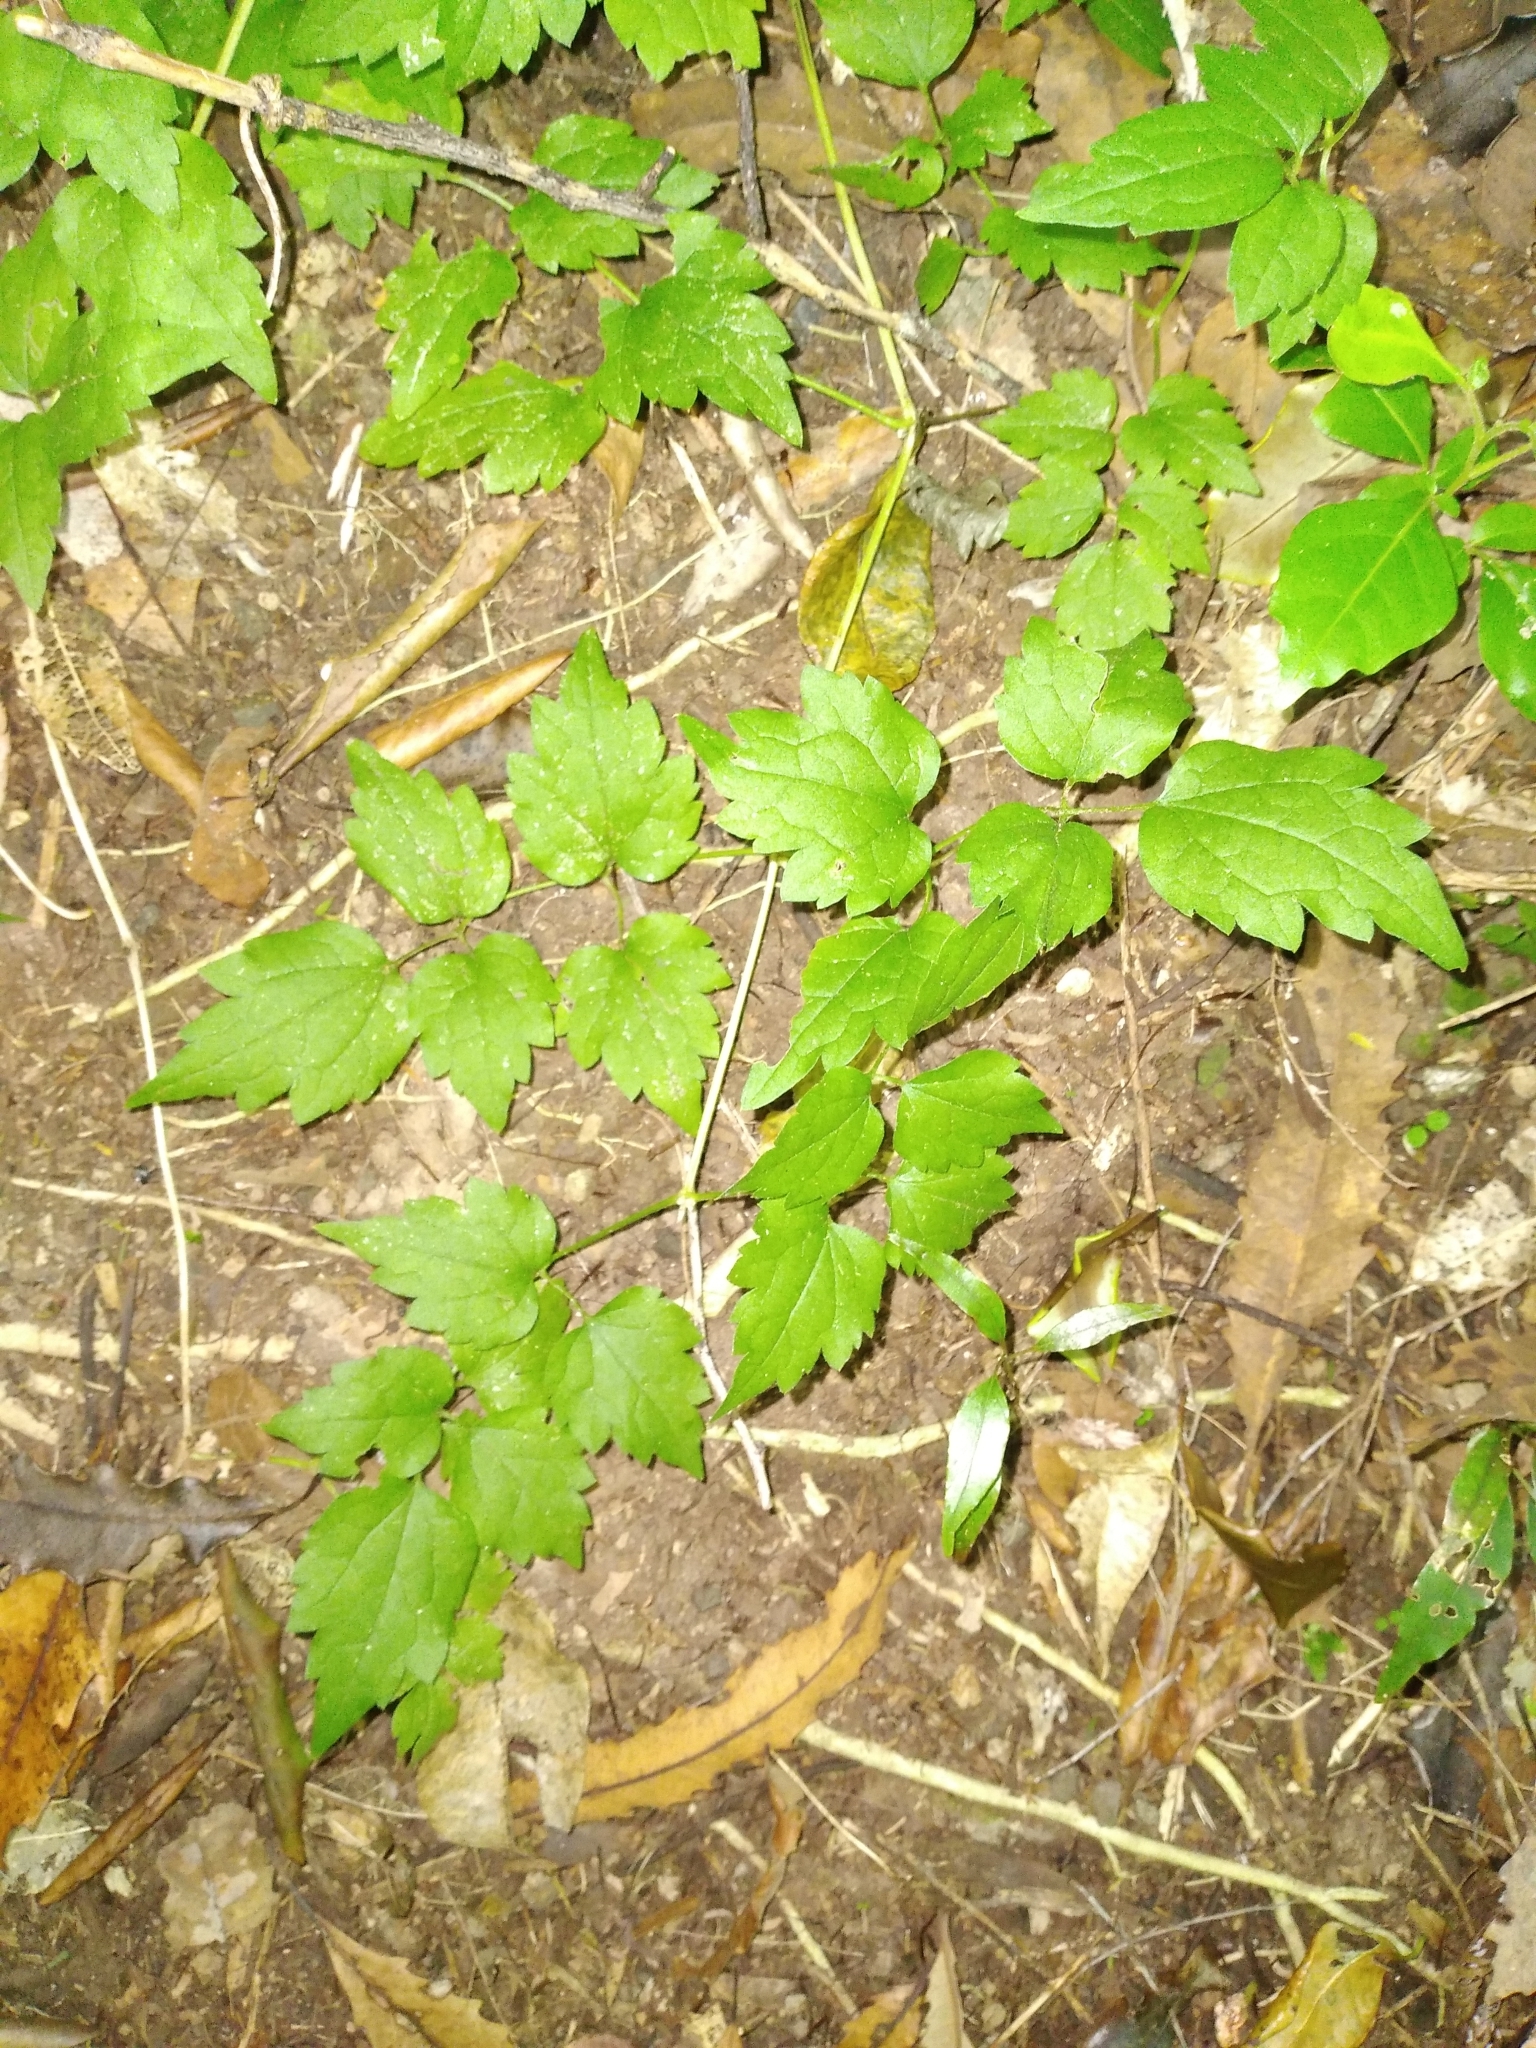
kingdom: Plantae
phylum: Tracheophyta
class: Magnoliopsida
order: Ranunculales
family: Ranunculaceae
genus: Clematis
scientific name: Clematis vitalba
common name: Evergreen clematis
